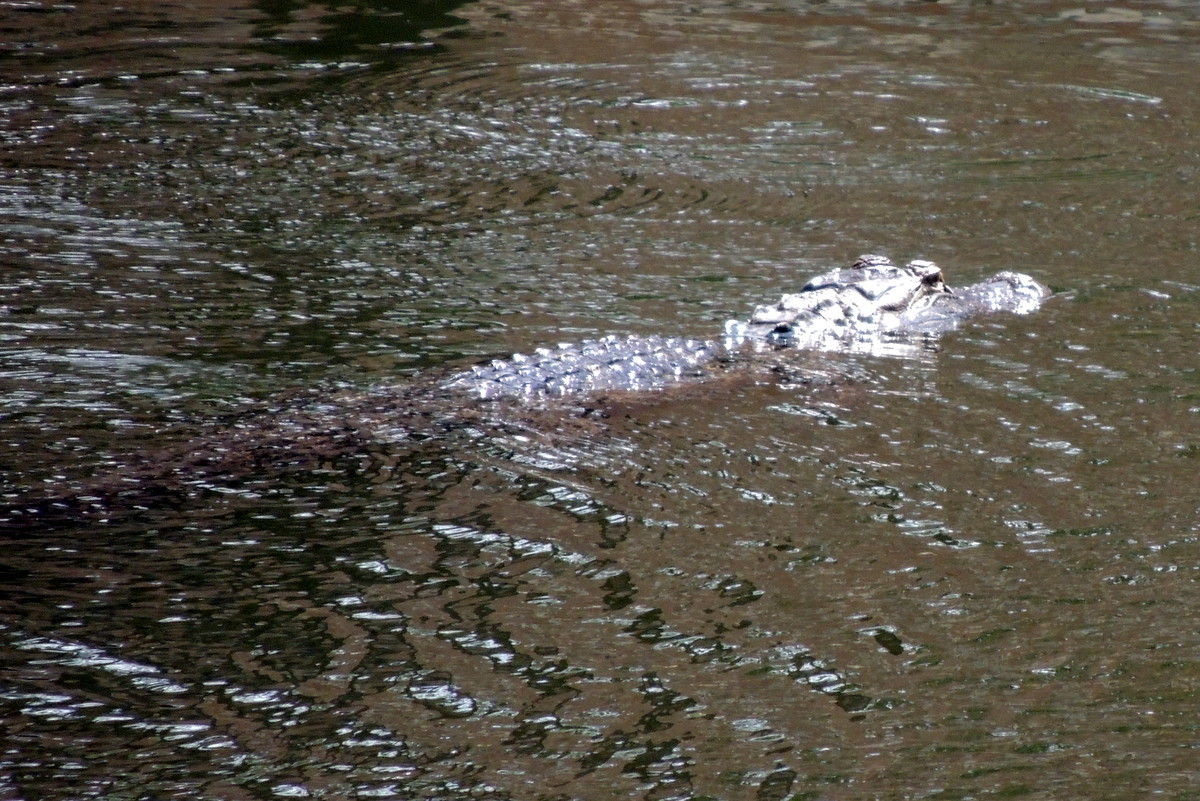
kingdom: Animalia
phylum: Chordata
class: Crocodylia
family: Alligatoridae
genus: Alligator
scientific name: Alligator mississippiensis
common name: American alligator
